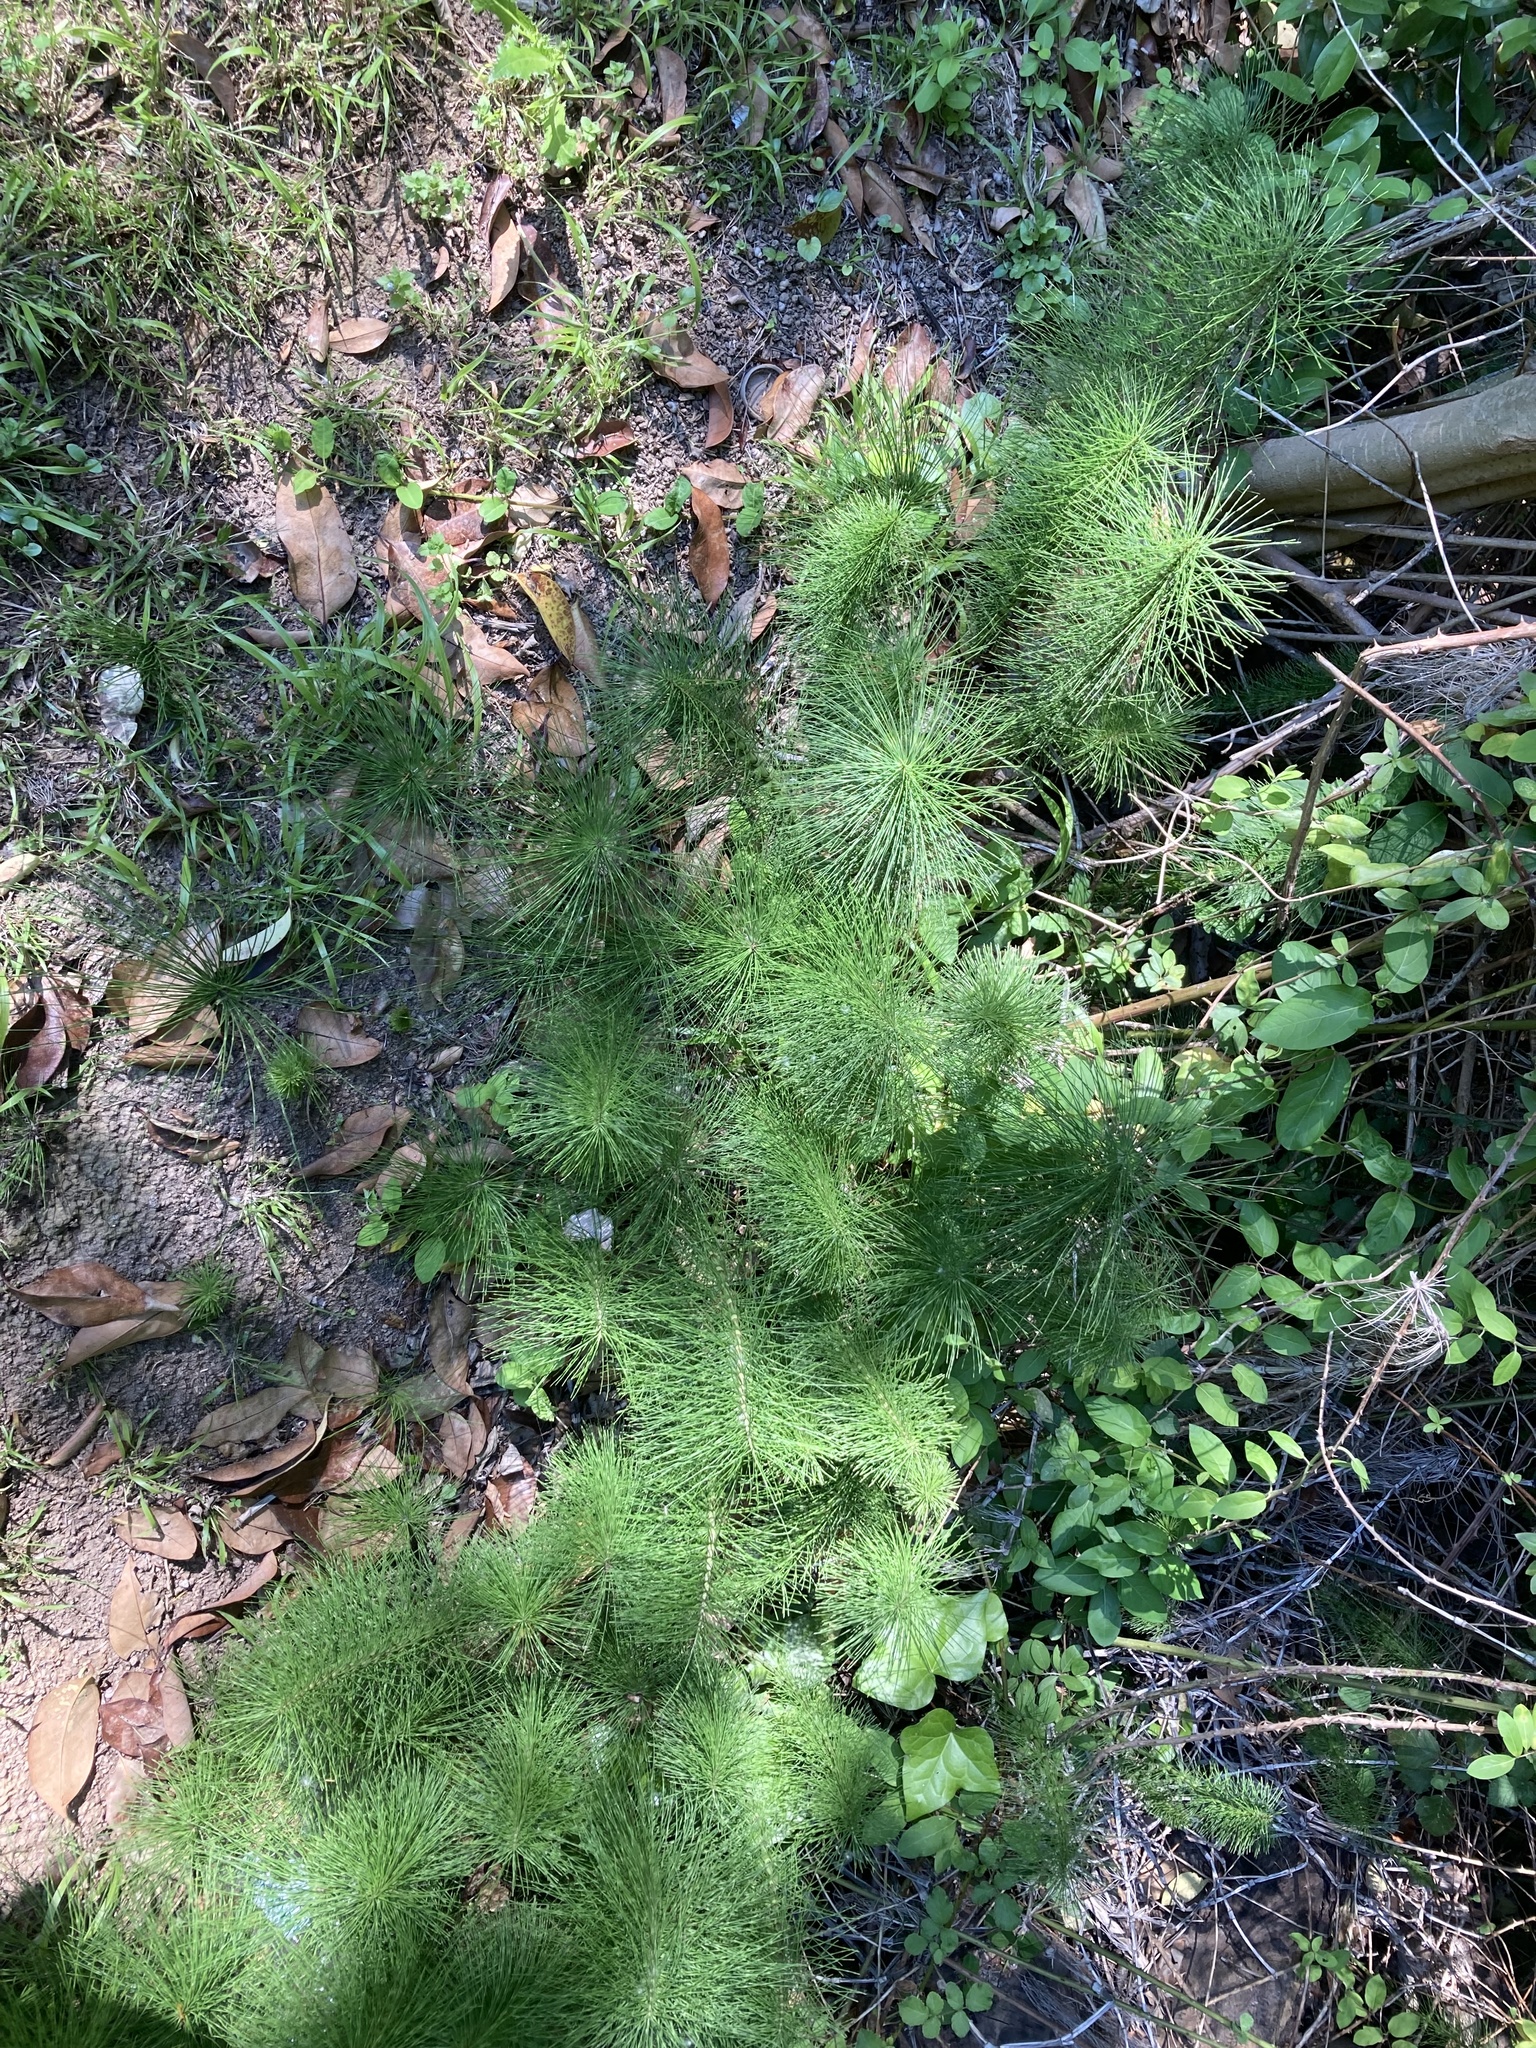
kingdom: Plantae
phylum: Tracheophyta
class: Polypodiopsida
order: Equisetales
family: Equisetaceae
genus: Equisetum
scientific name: Equisetum telmateia
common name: Great horsetail
